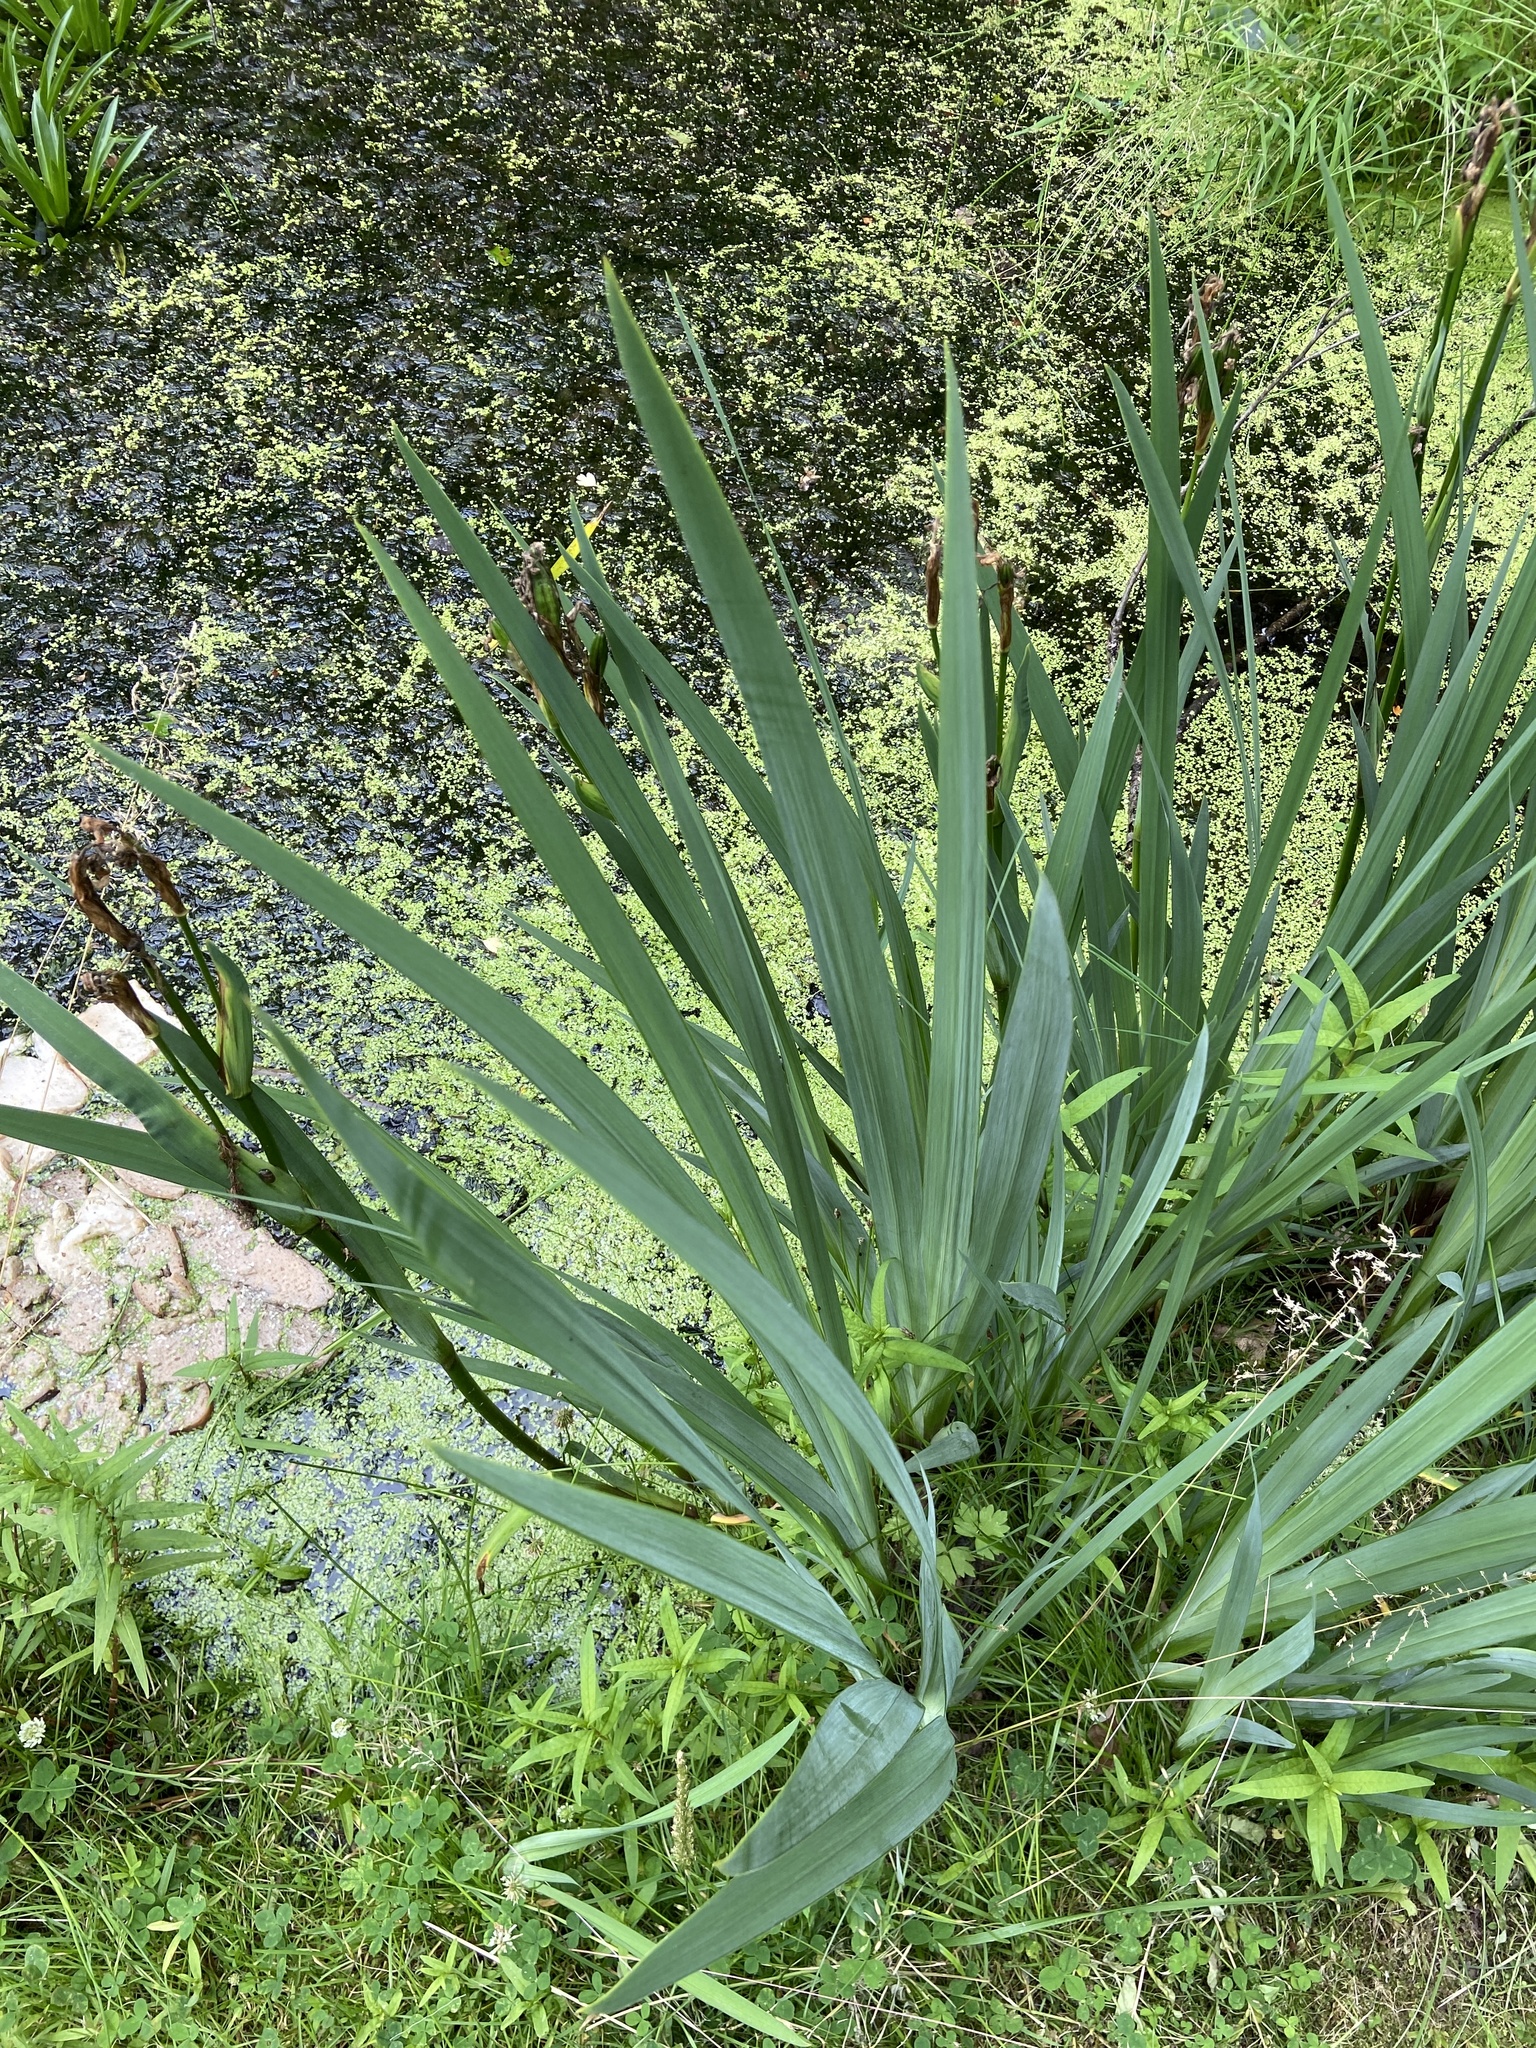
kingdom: Plantae
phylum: Tracheophyta
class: Liliopsida
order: Asparagales
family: Iridaceae
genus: Iris
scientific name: Iris pseudacorus
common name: Yellow flag
